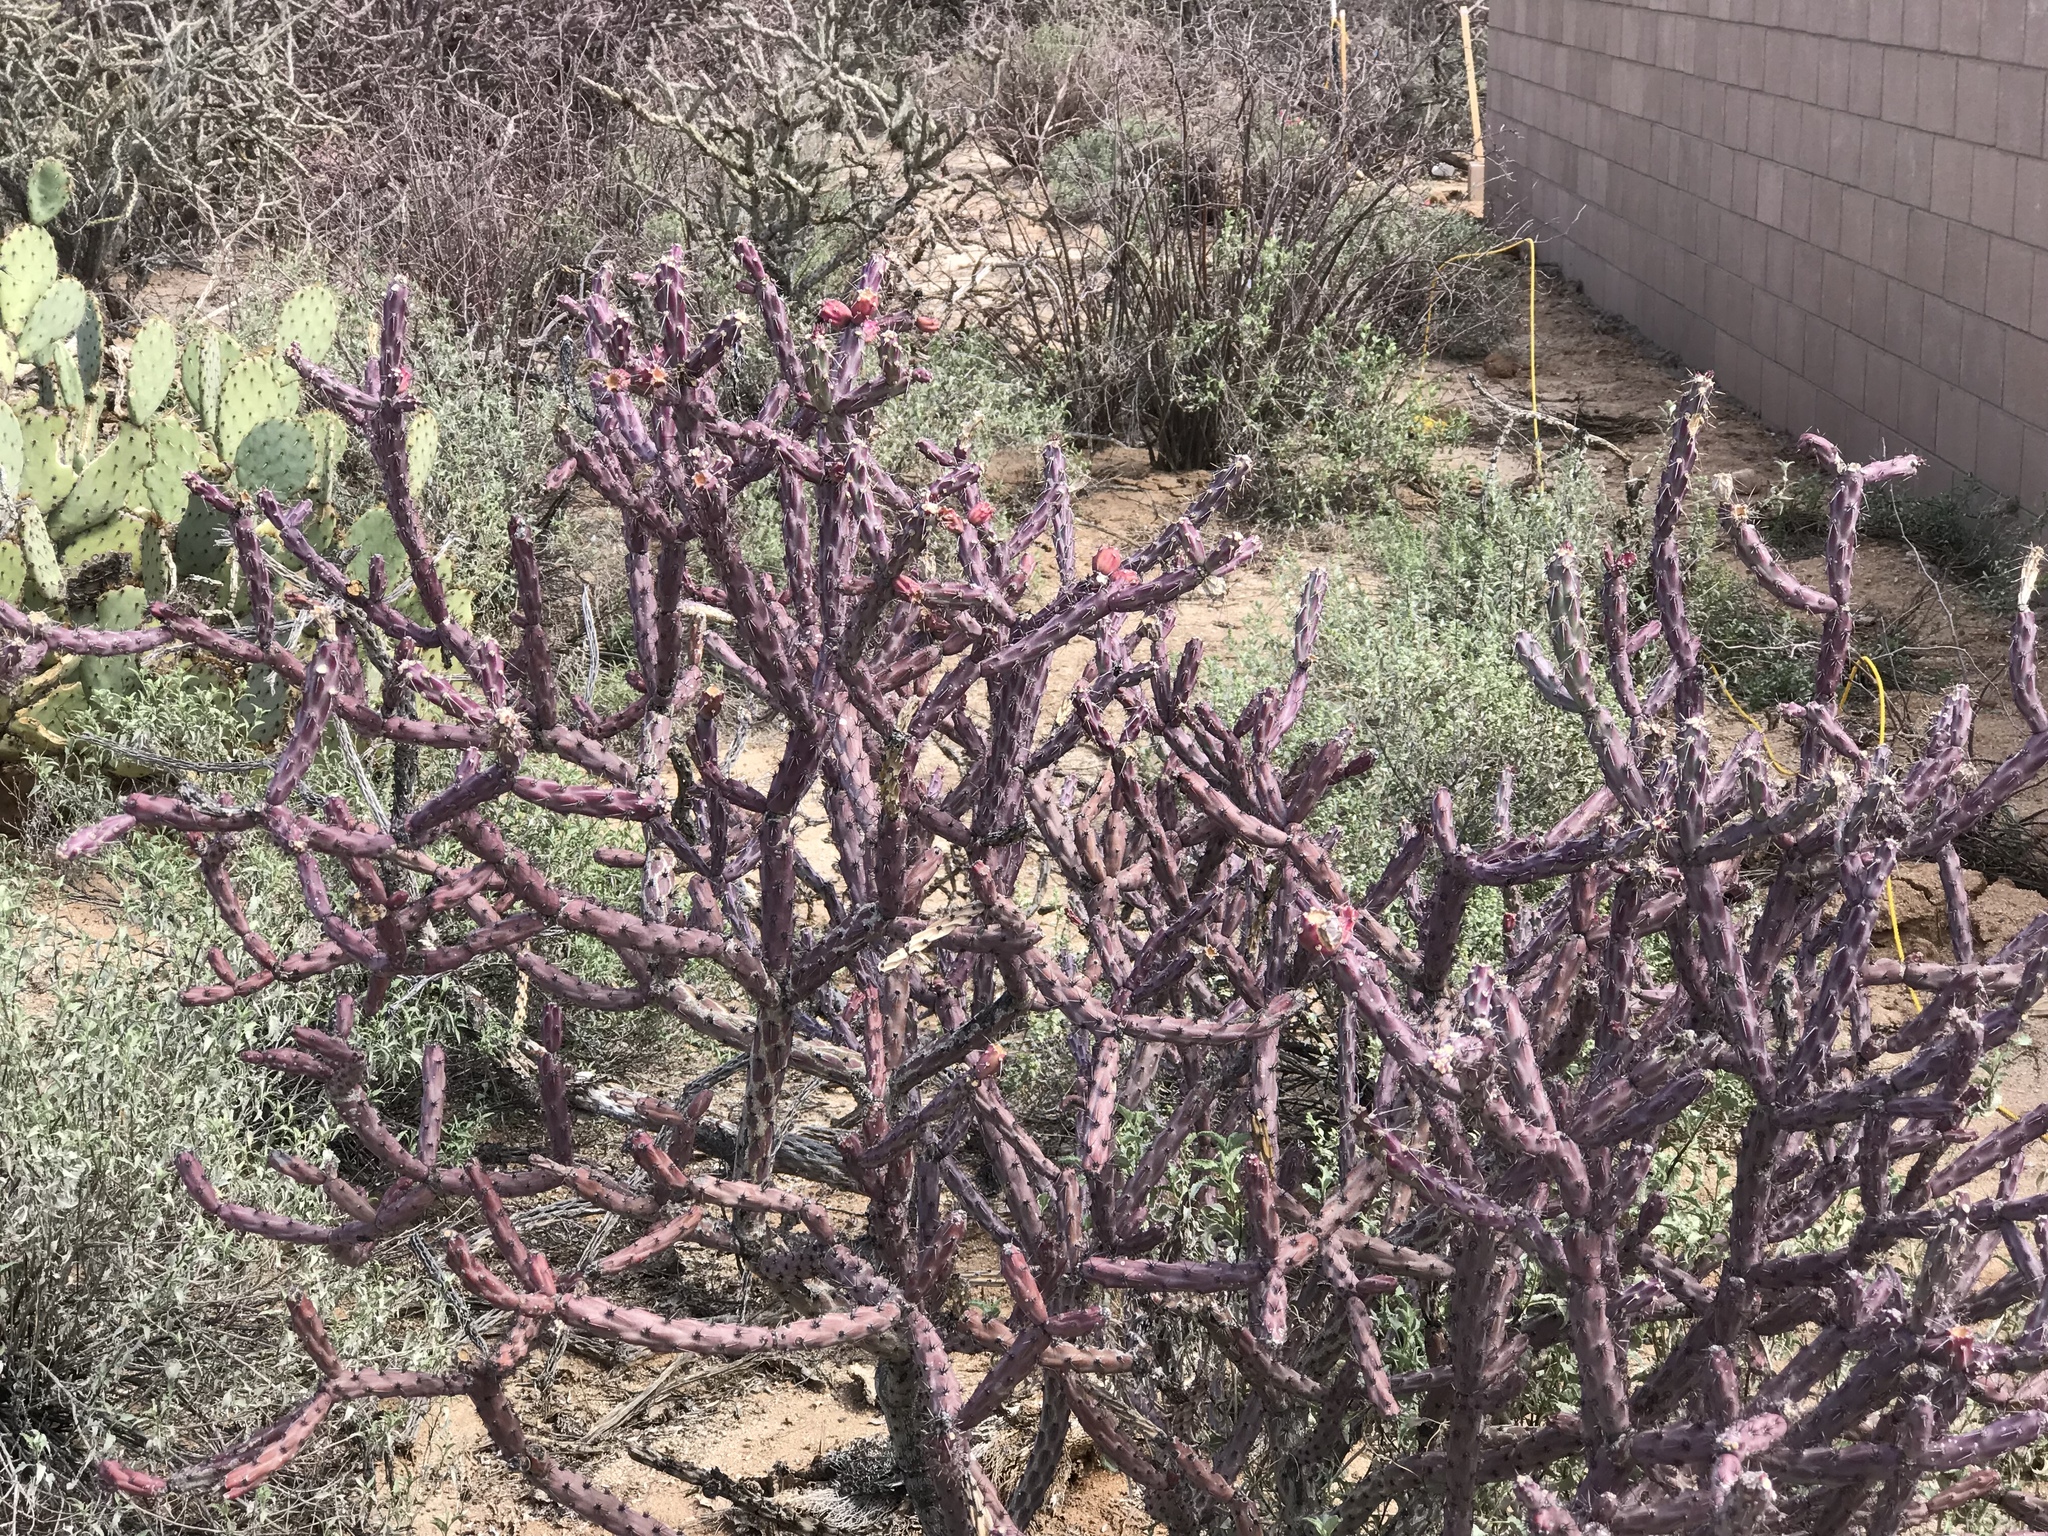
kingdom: Plantae
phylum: Tracheophyta
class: Magnoliopsida
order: Caryophyllales
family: Cactaceae
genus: Cylindropuntia
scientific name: Cylindropuntia thurberi
